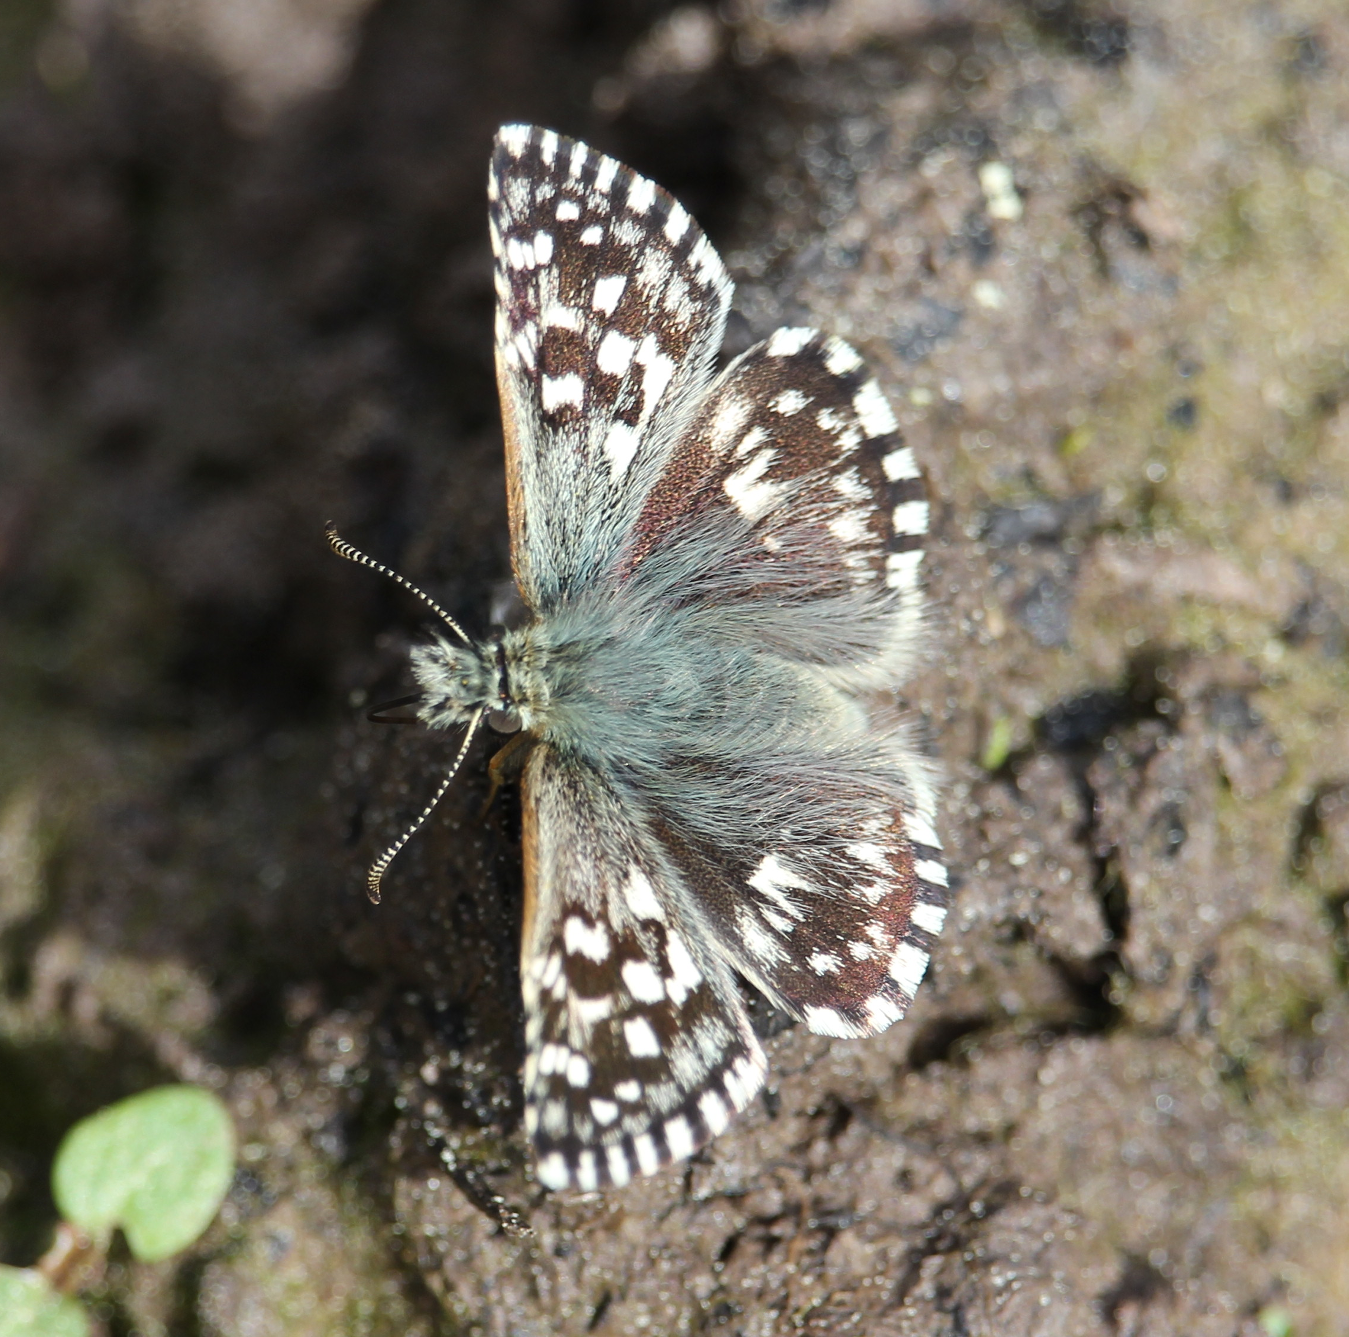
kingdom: Animalia
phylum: Arthropoda
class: Insecta
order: Lepidoptera
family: Hesperiidae
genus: Pyrgus
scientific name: Pyrgus malvae
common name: Grizzled skipper
